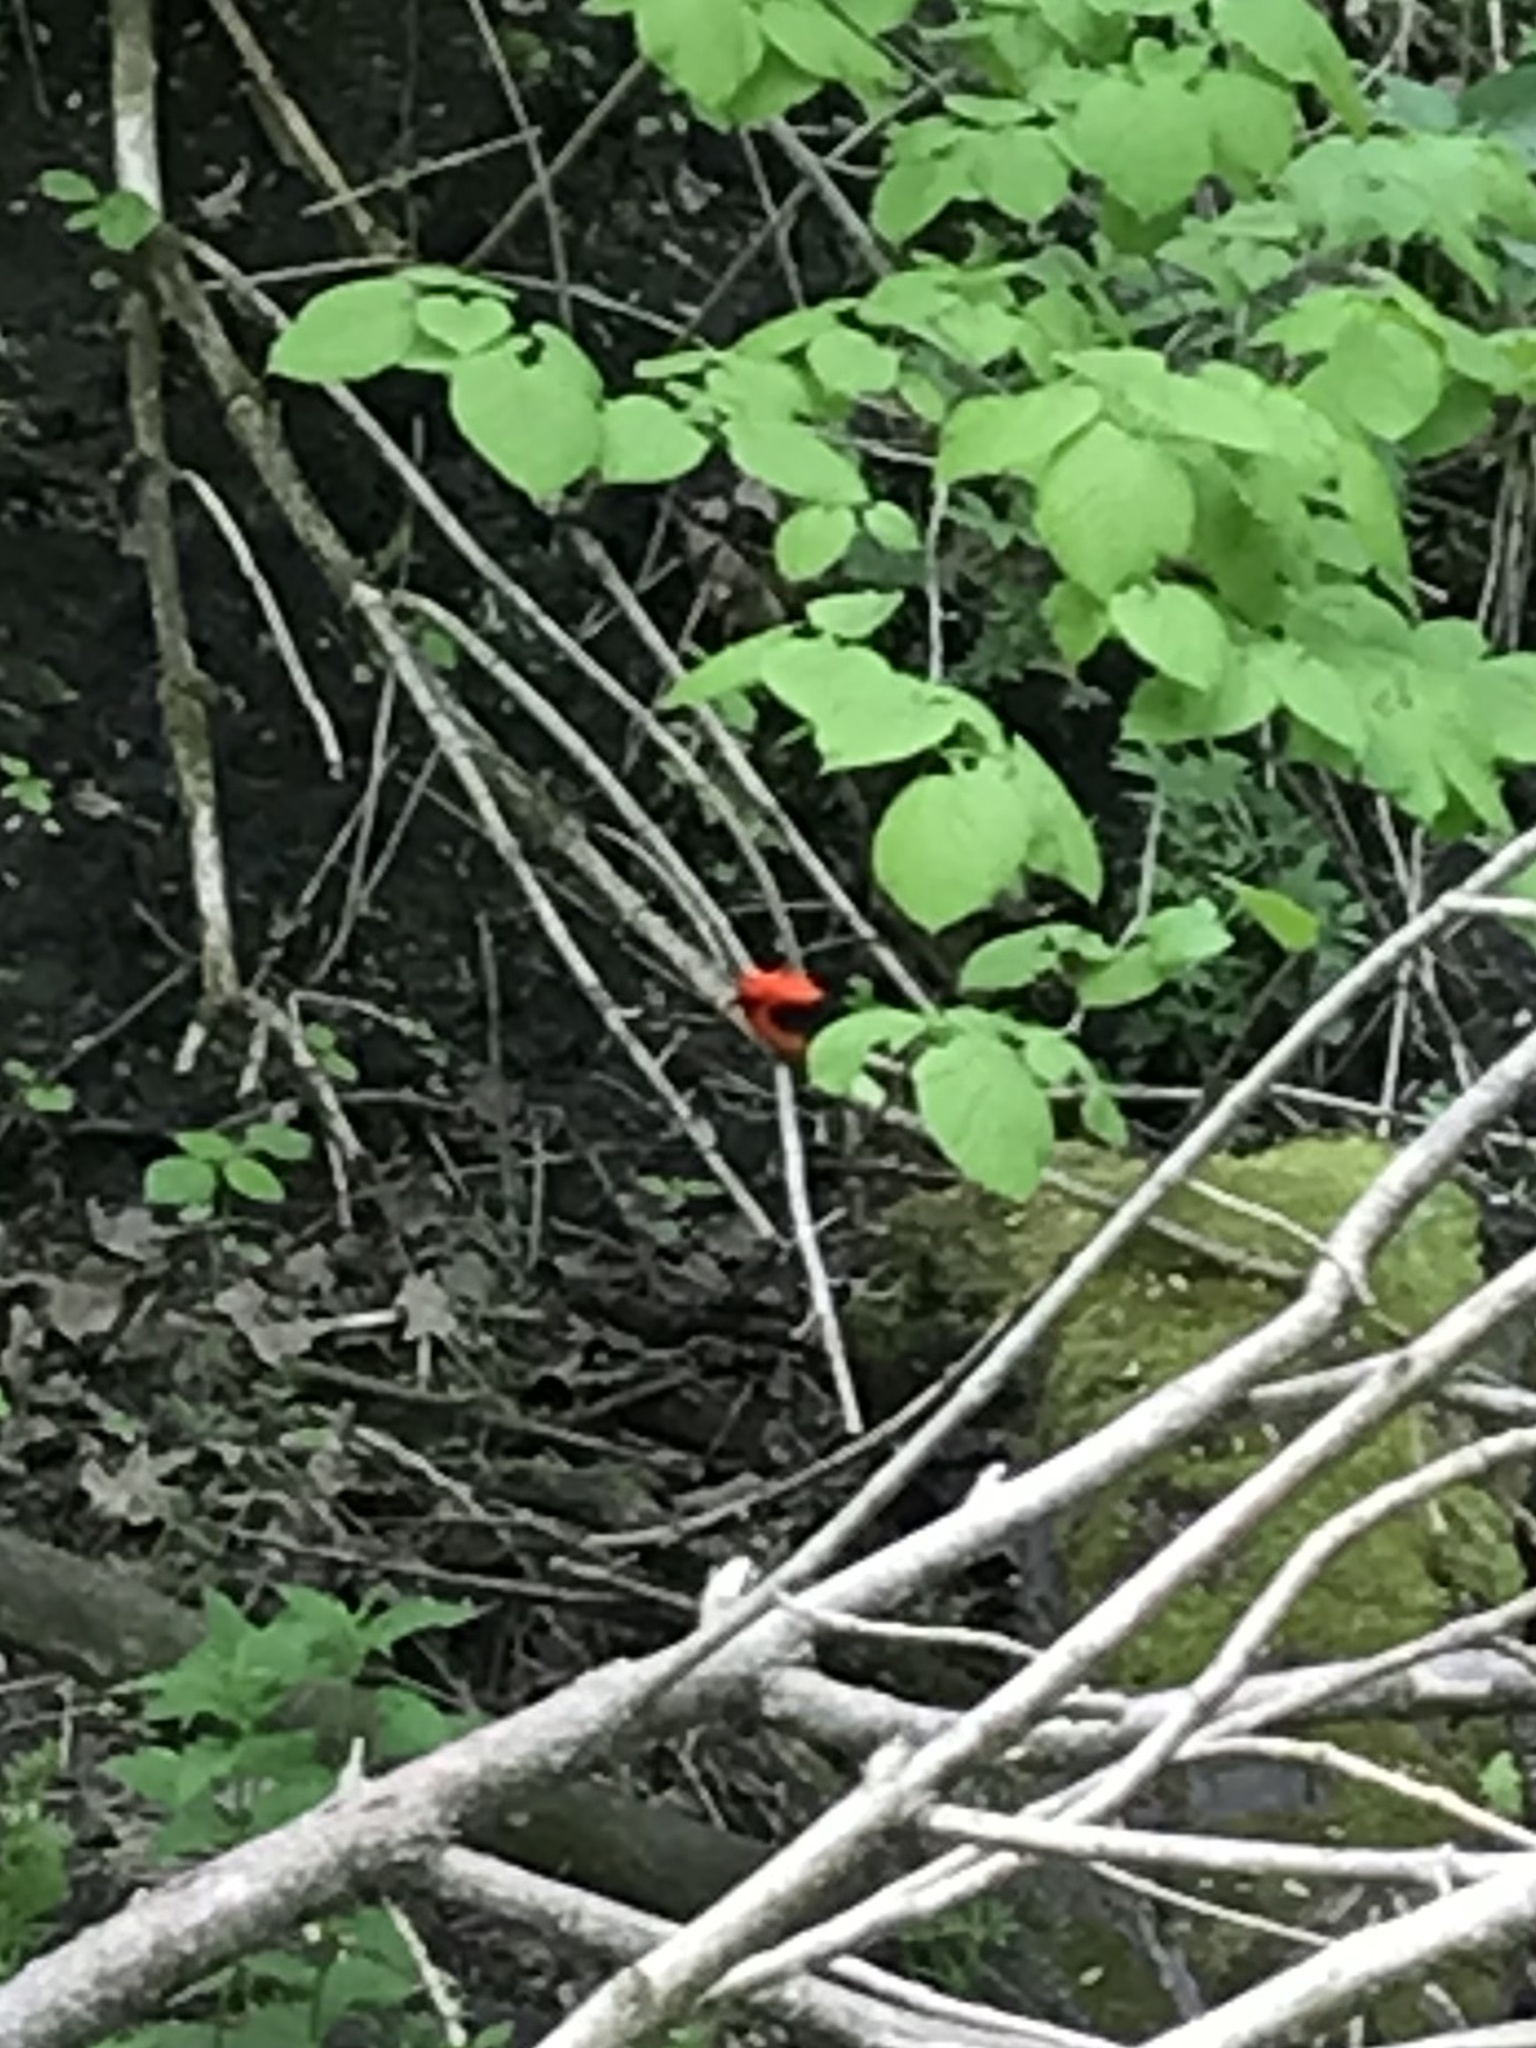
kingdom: Animalia
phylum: Chordata
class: Aves
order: Passeriformes
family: Cardinalidae
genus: Piranga
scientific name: Piranga olivacea
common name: Scarlet tanager
